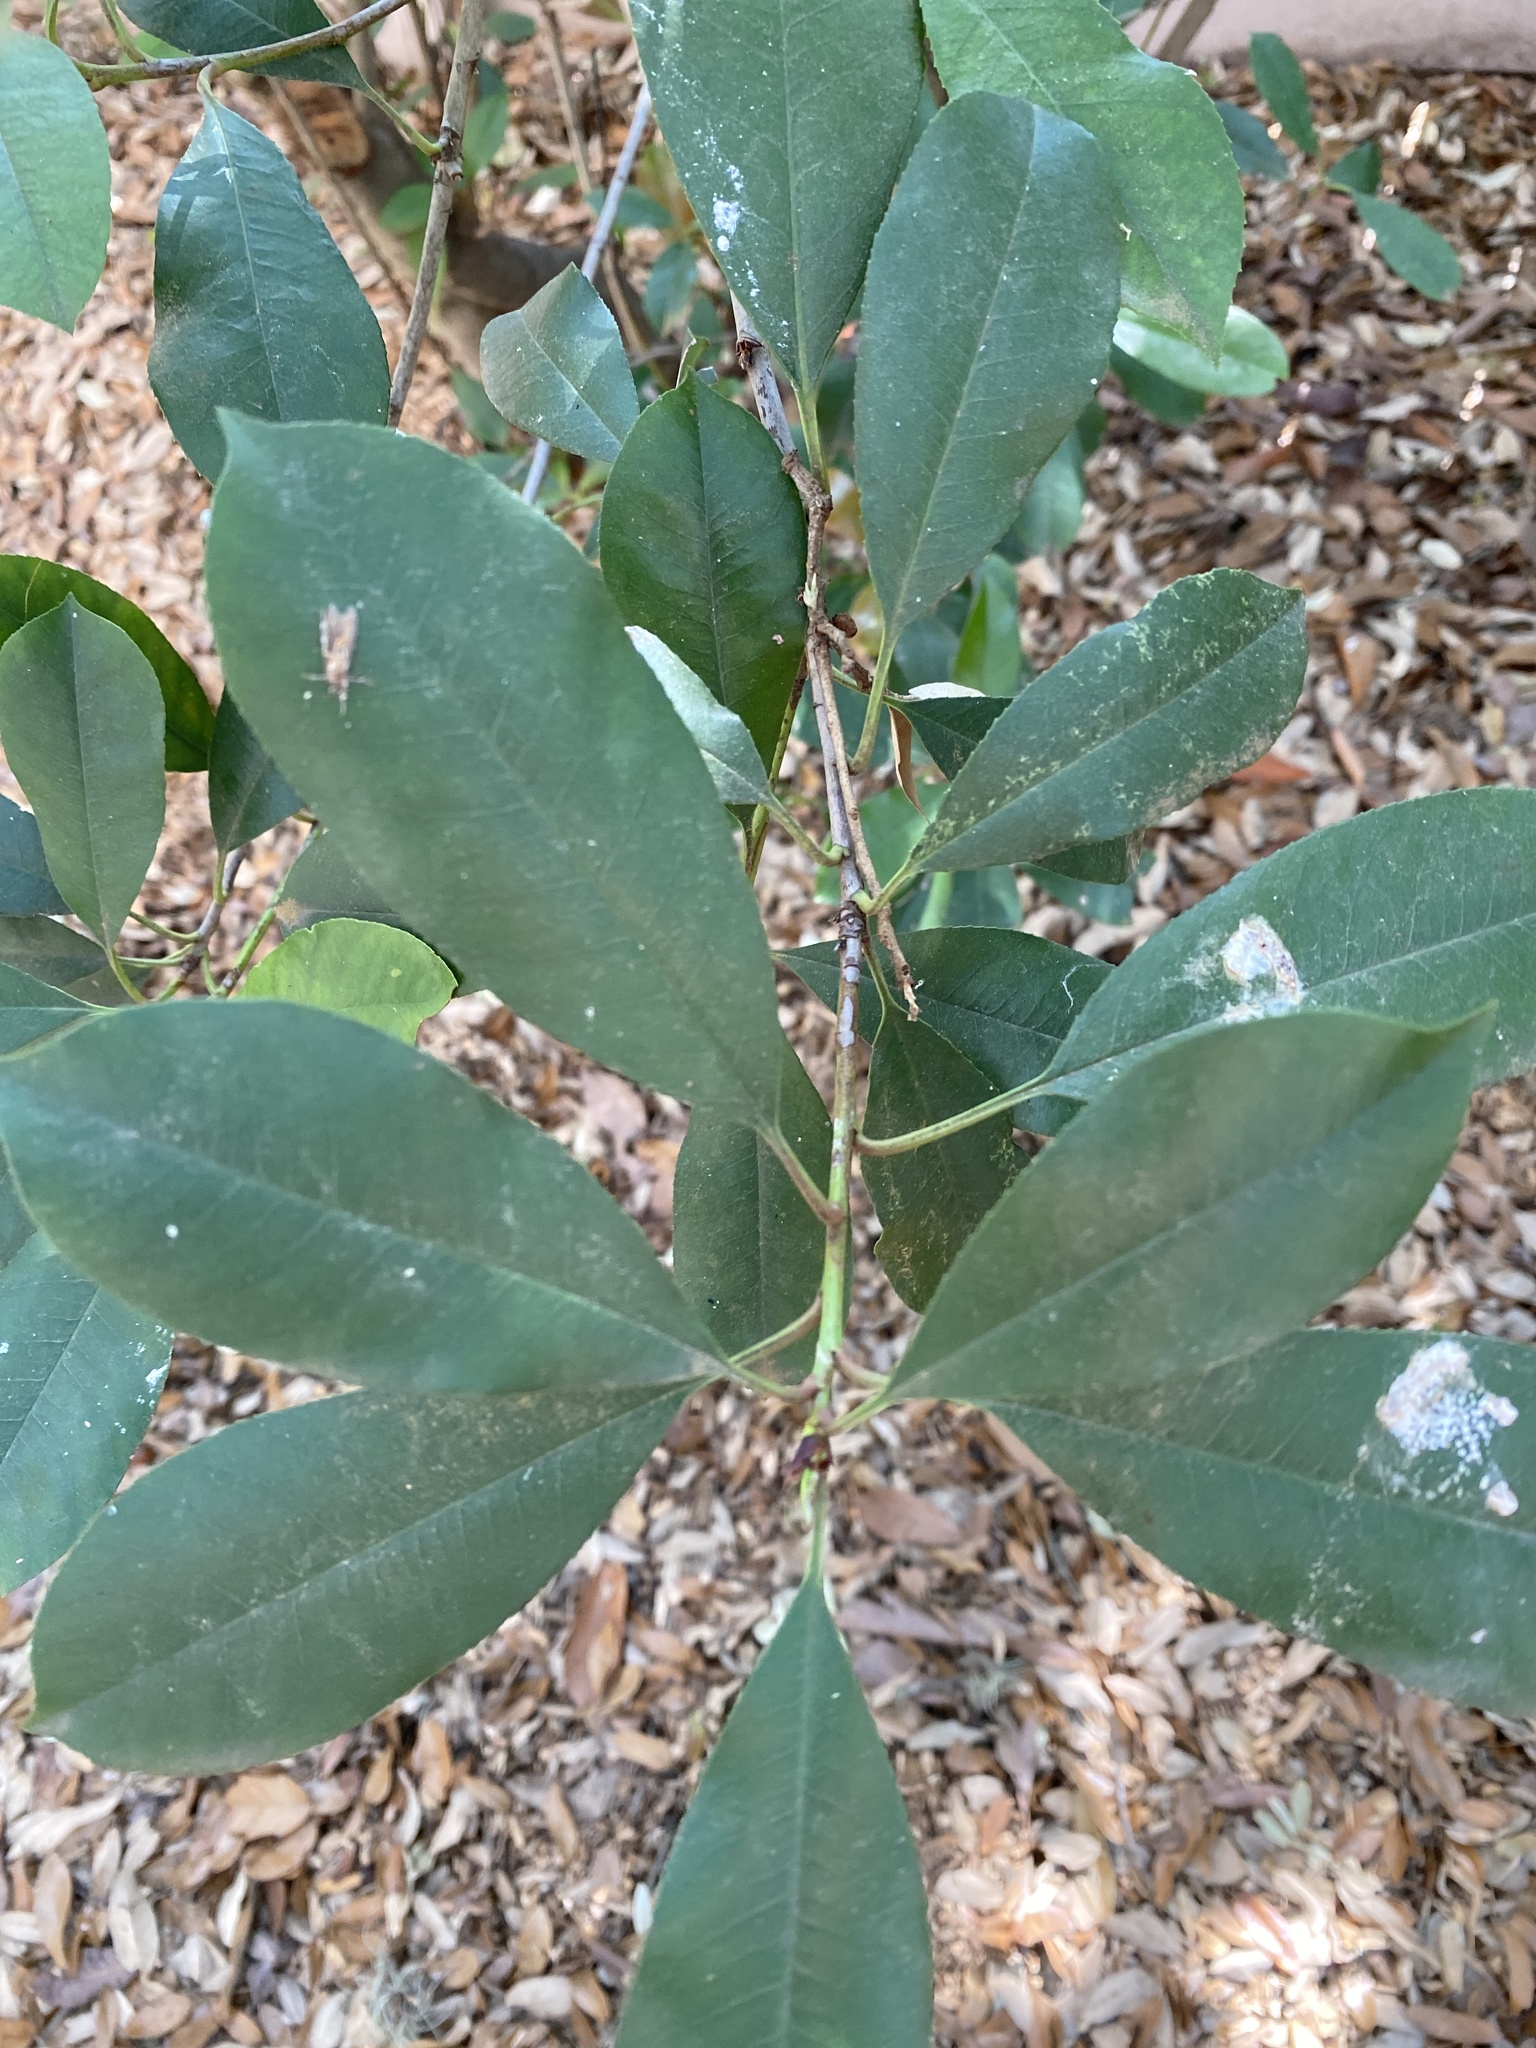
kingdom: Plantae
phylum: Tracheophyta
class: Magnoliopsida
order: Rosales
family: Rosaceae
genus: Photinia
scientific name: Photinia fraseri
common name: Fraser's photinia
